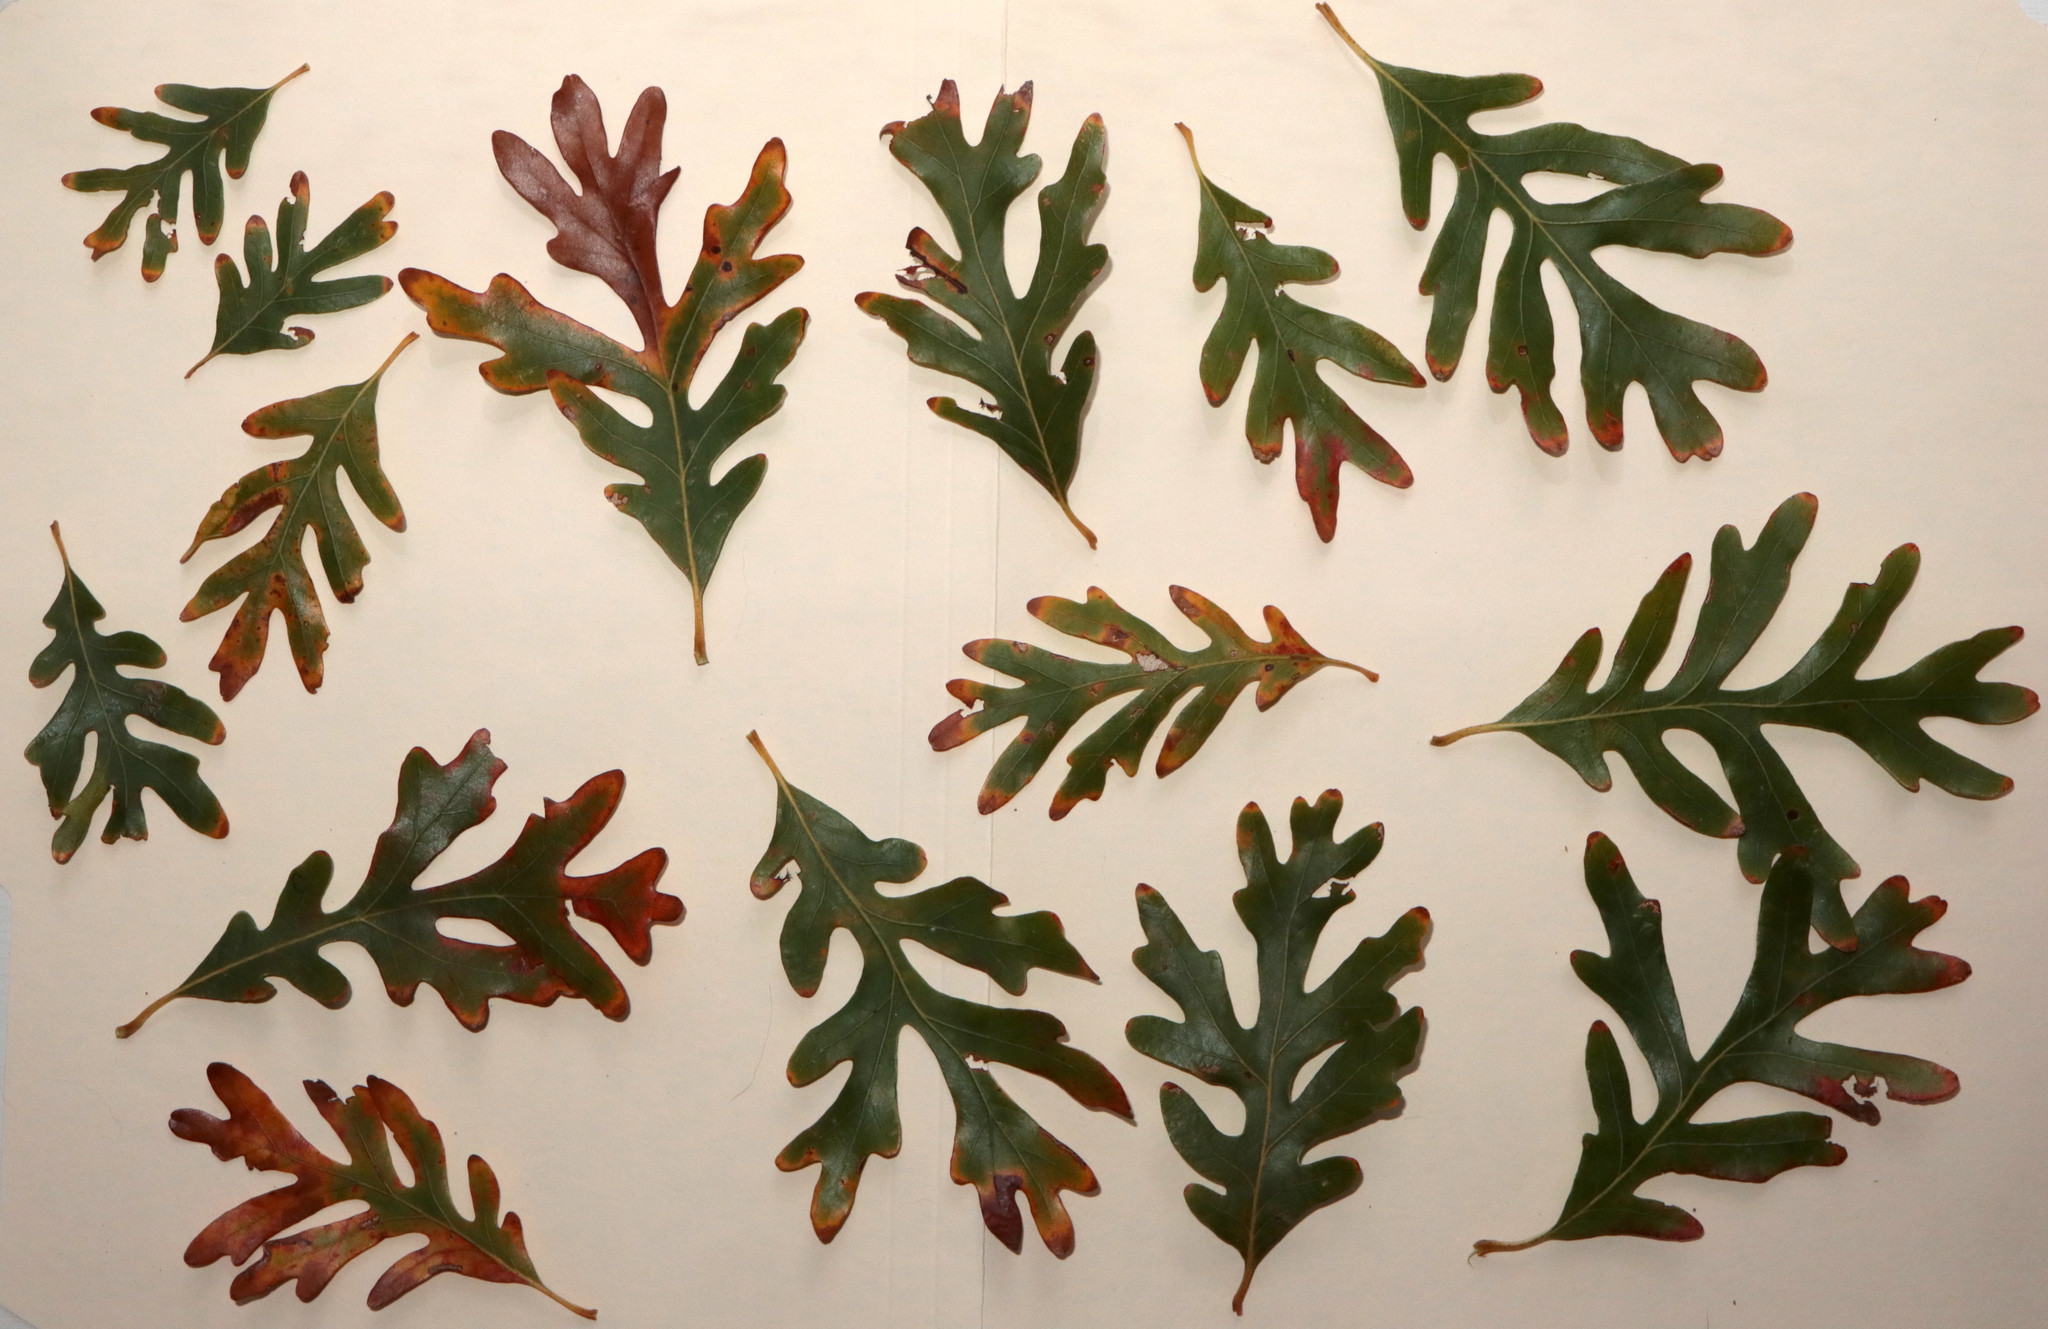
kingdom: Plantae
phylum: Tracheophyta
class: Magnoliopsida
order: Fagales
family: Fagaceae
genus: Quercus
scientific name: Quercus alba
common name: White oak
